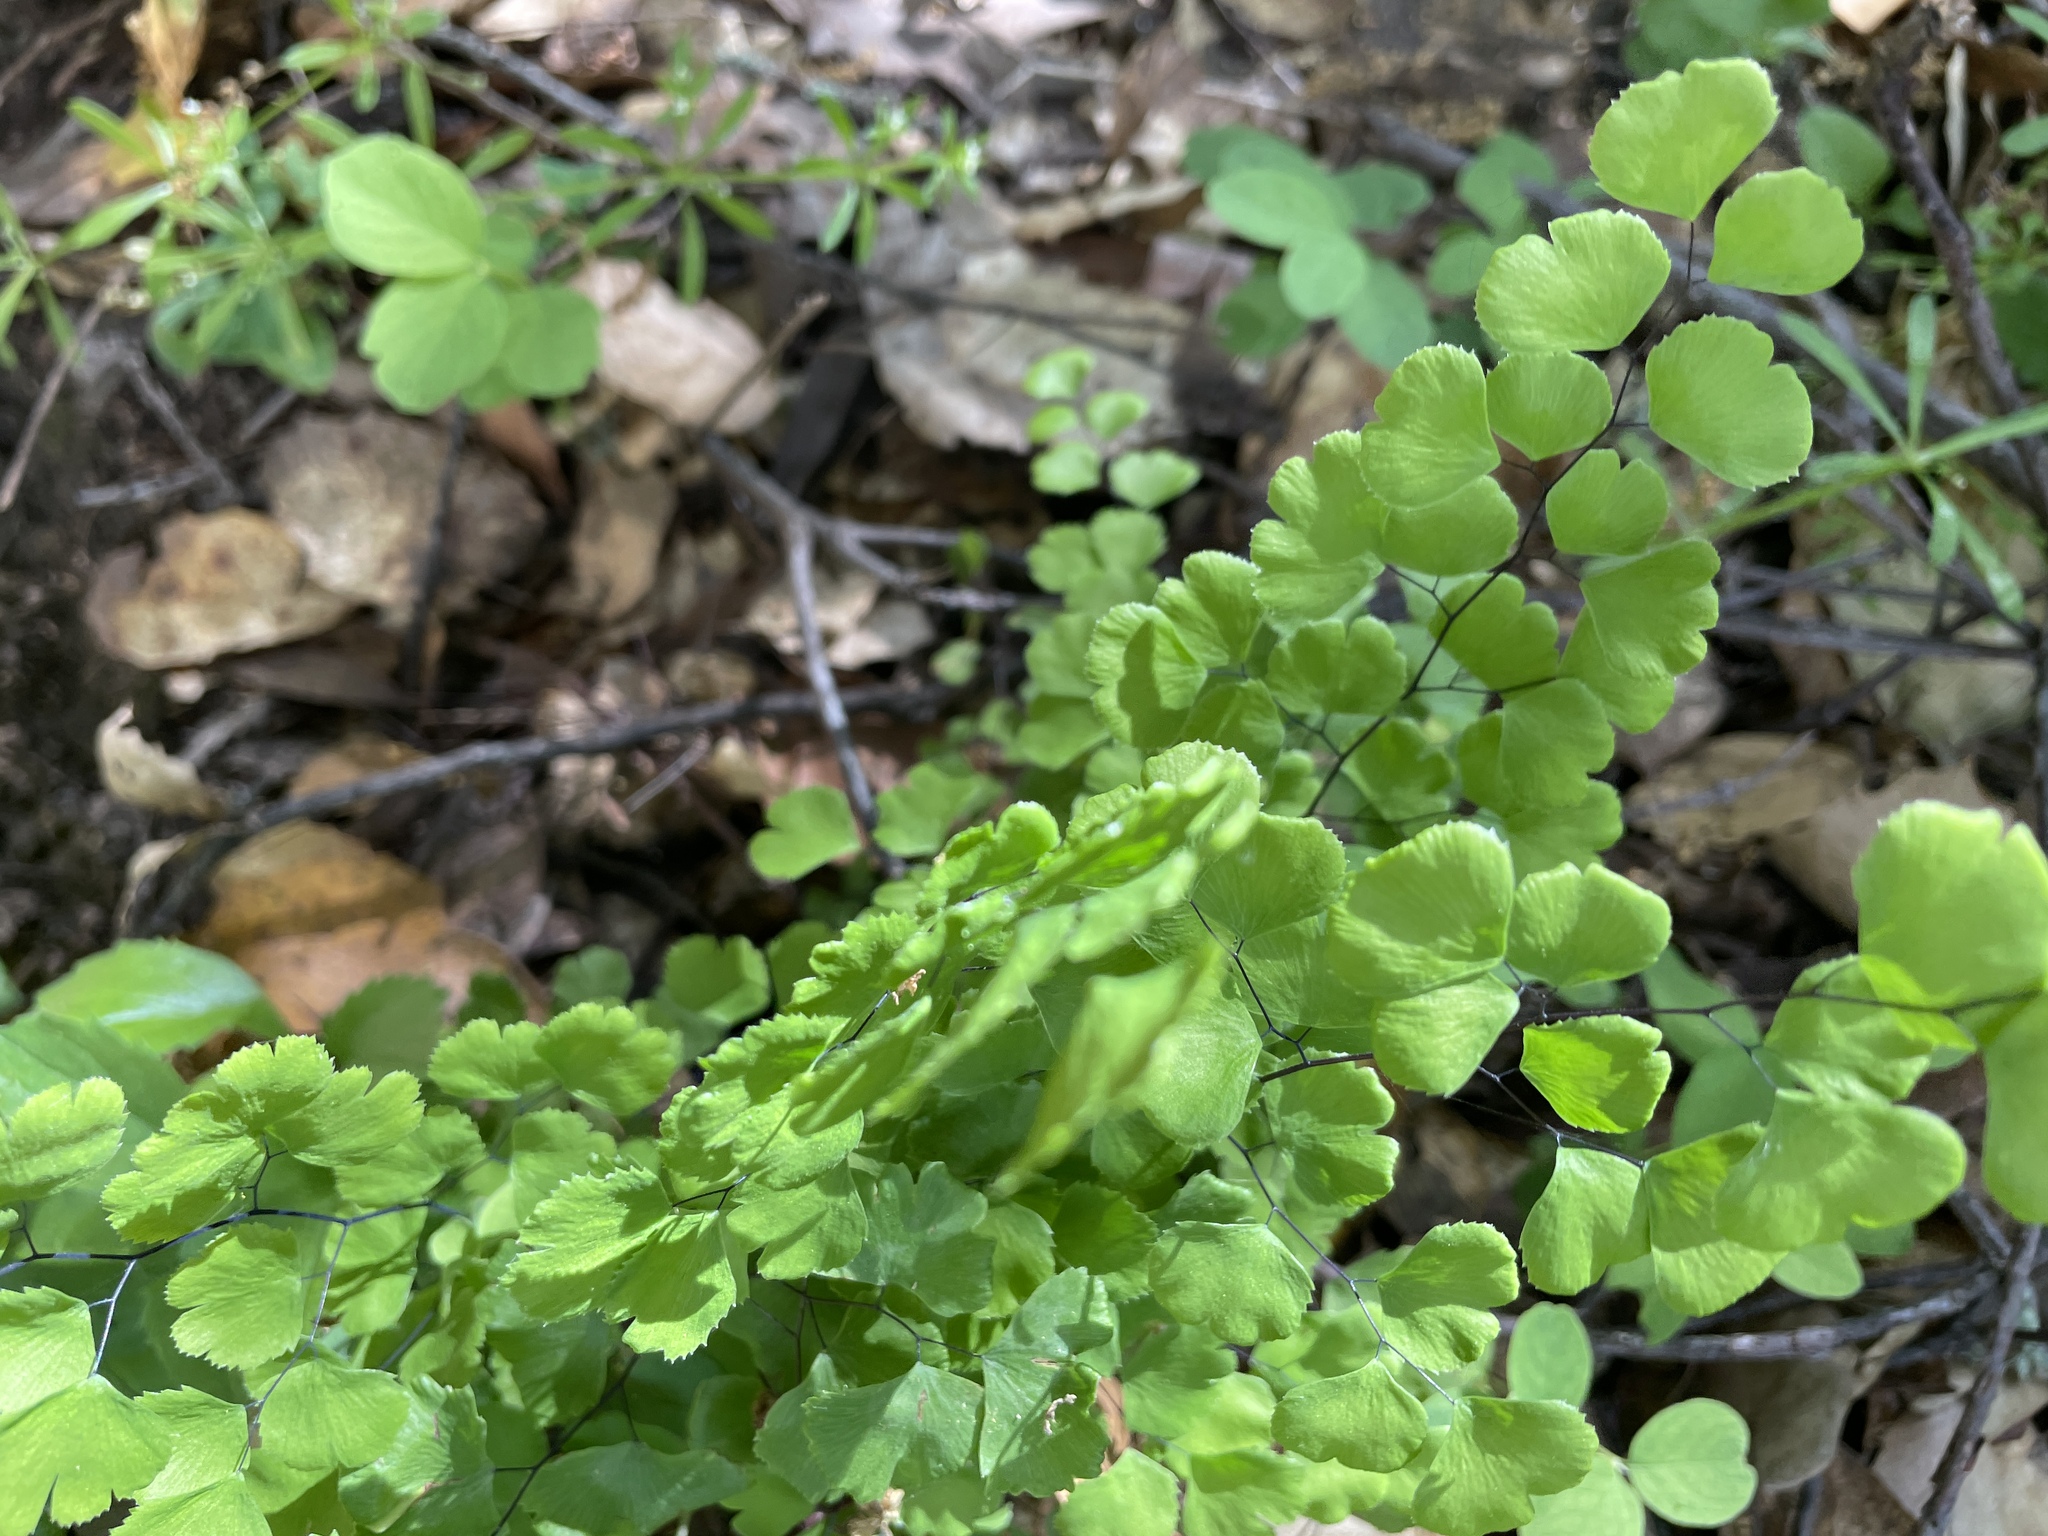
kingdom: Plantae
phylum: Tracheophyta
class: Polypodiopsida
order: Polypodiales
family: Pteridaceae
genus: Adiantum
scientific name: Adiantum jordanii
